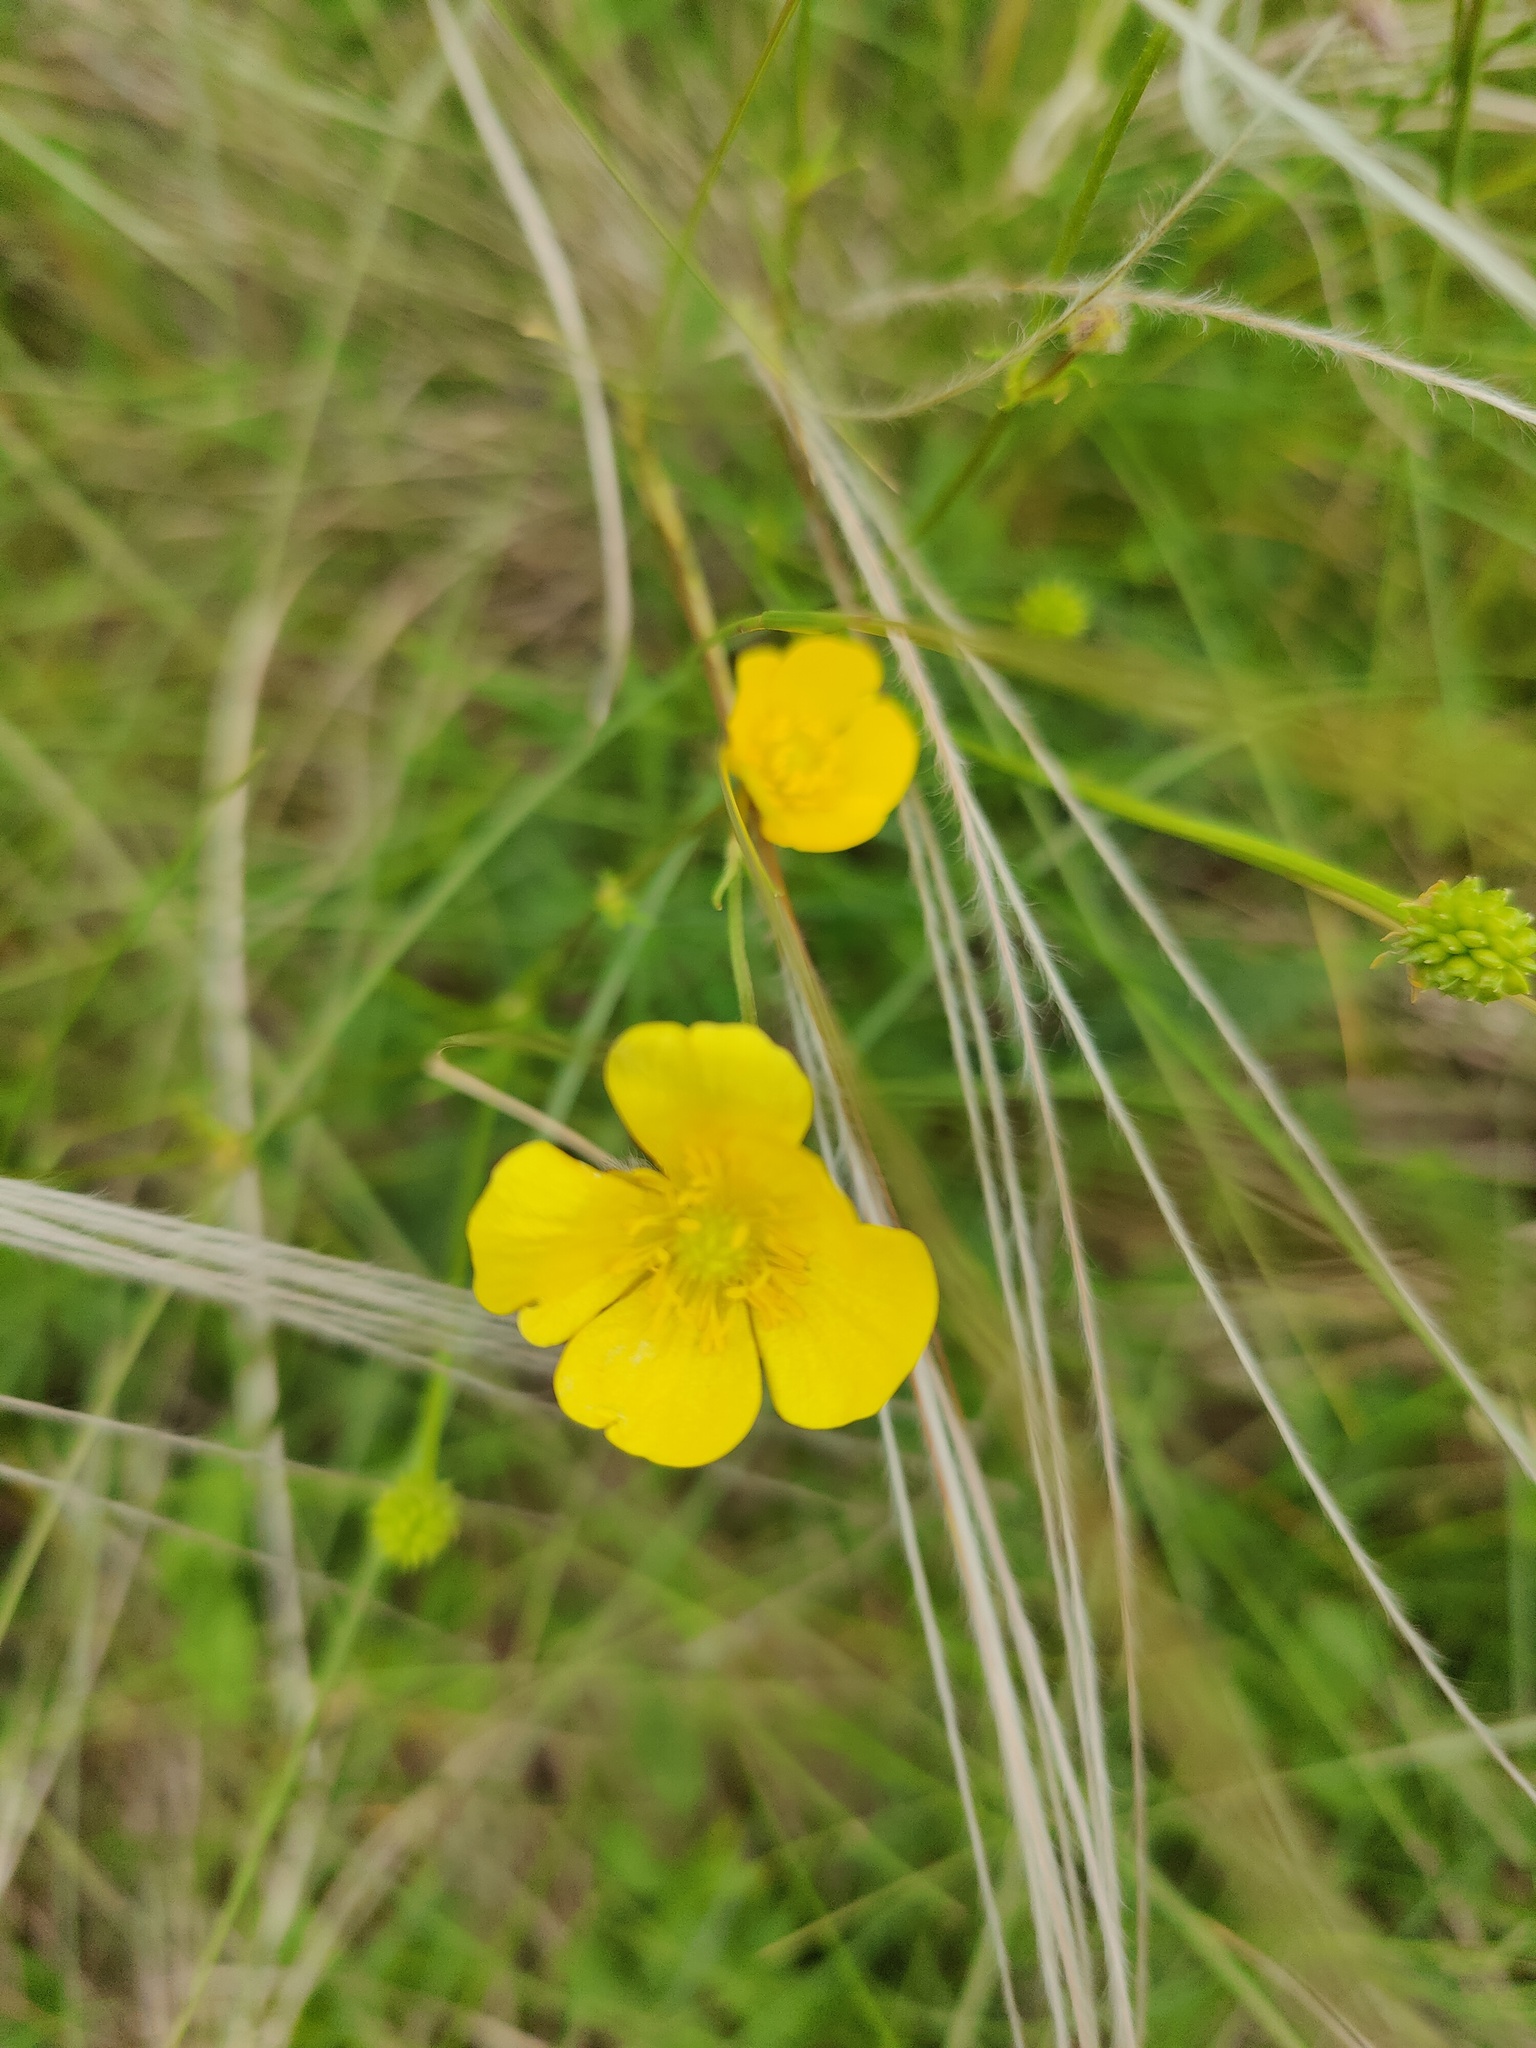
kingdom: Plantae
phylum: Tracheophyta
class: Magnoliopsida
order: Ranunculales
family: Ranunculaceae
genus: Ranunculus
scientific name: Ranunculus polyanthemos
